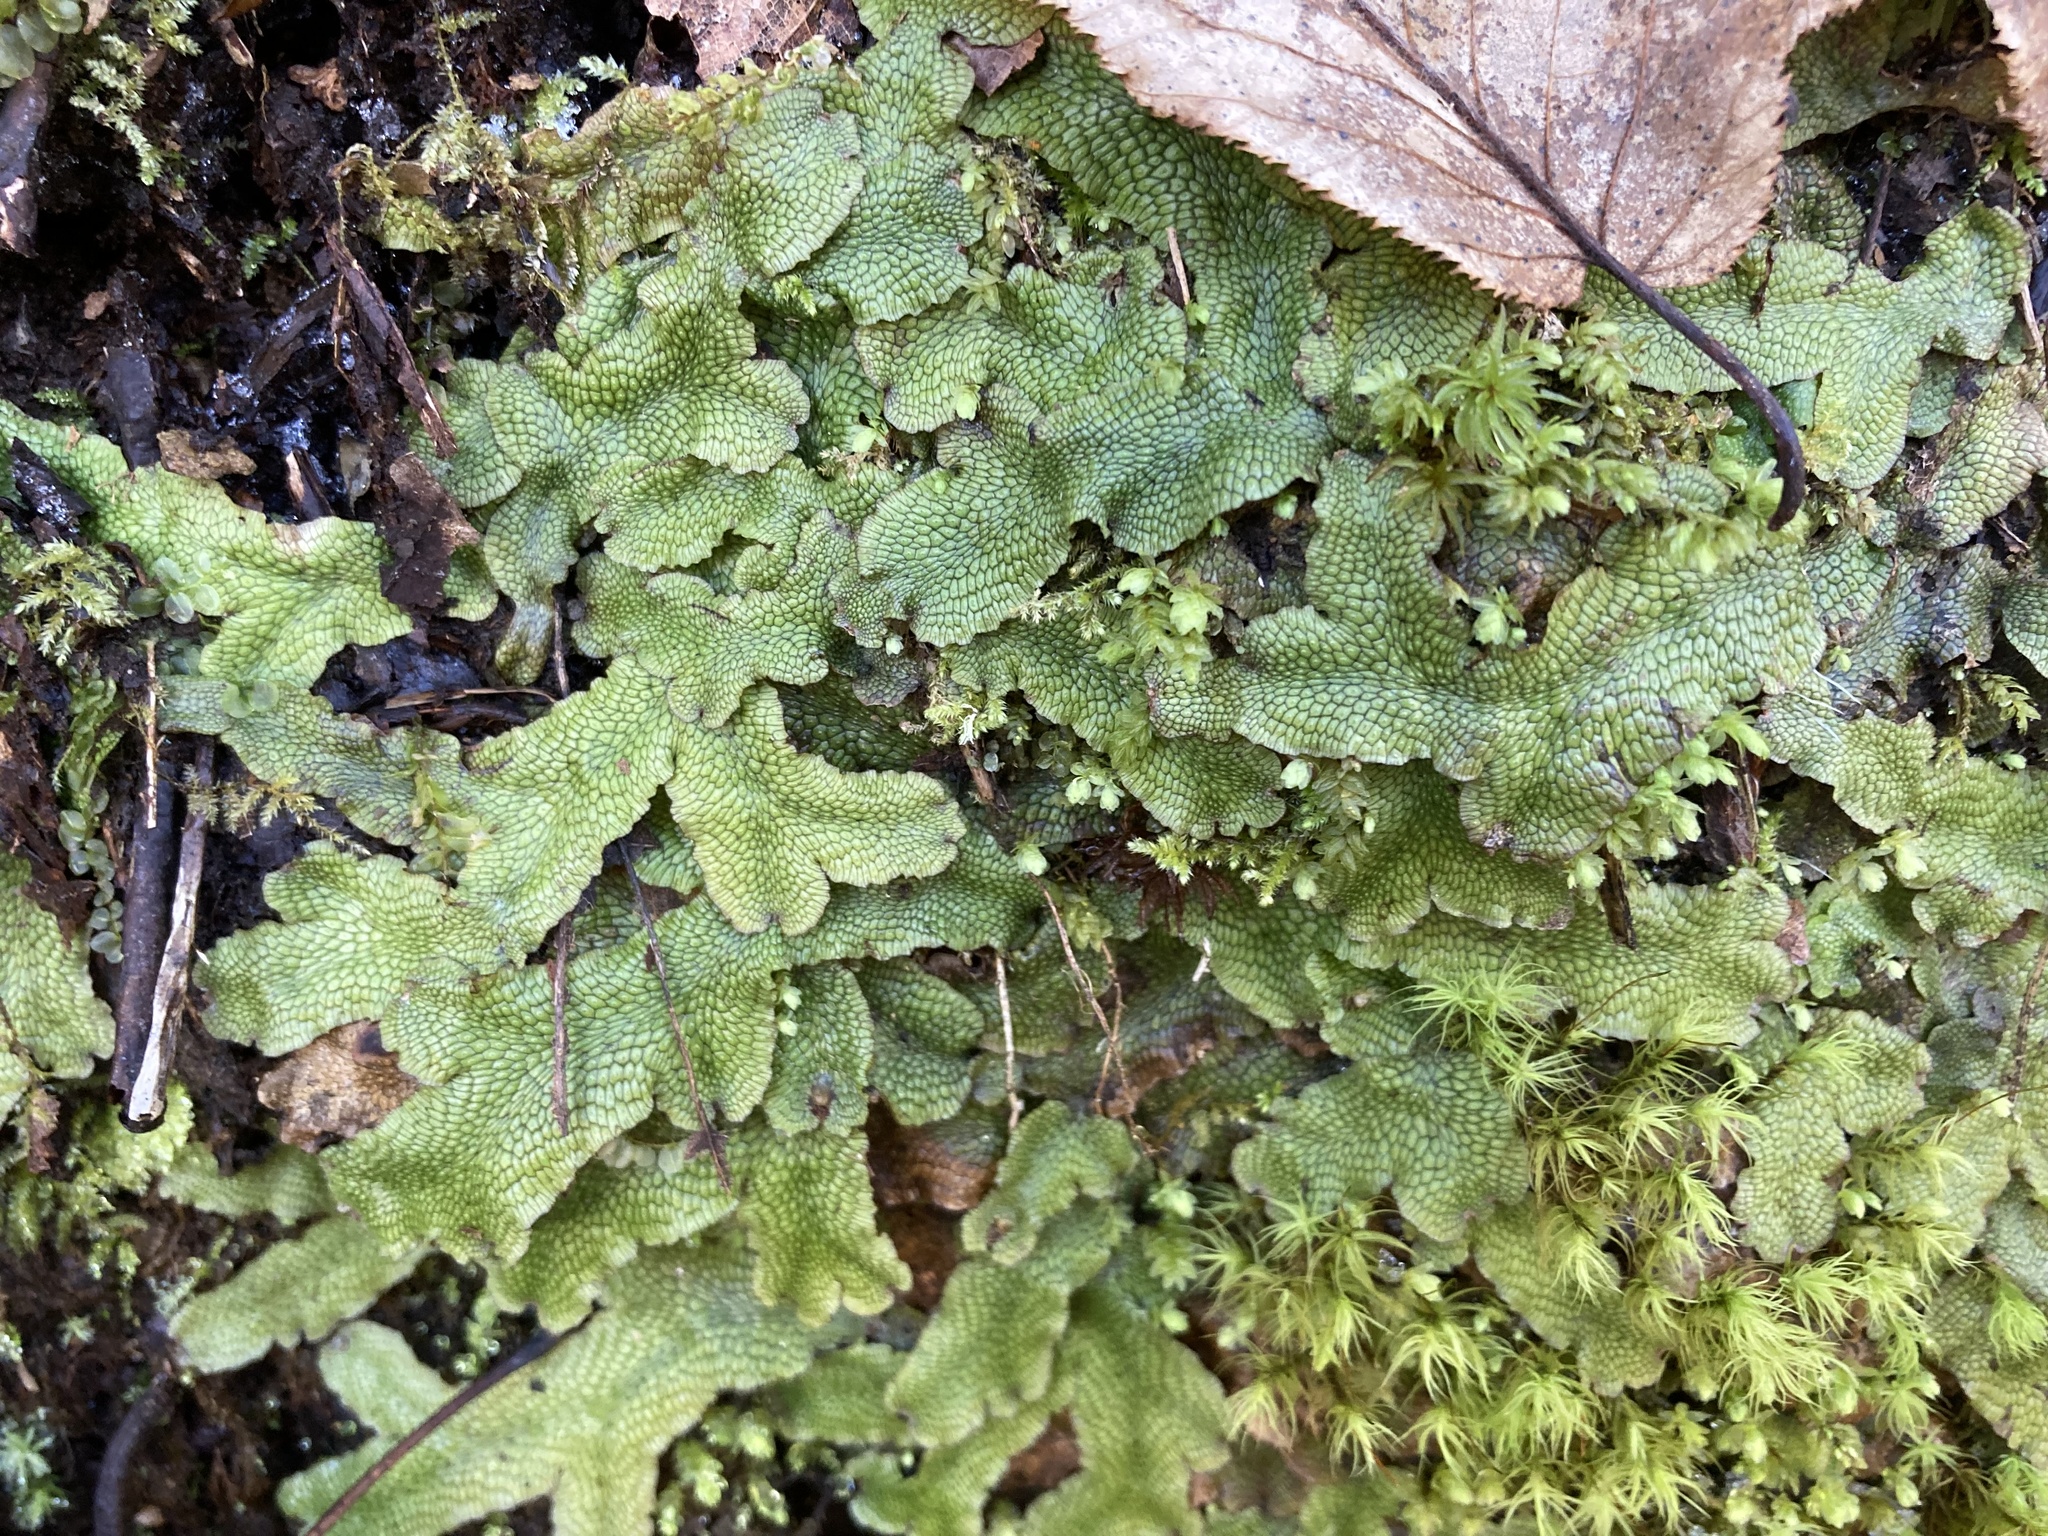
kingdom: Plantae
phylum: Marchantiophyta
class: Marchantiopsida
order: Marchantiales
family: Conocephalaceae
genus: Conocephalum
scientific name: Conocephalum salebrosum
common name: Cat-tongue liverwort
